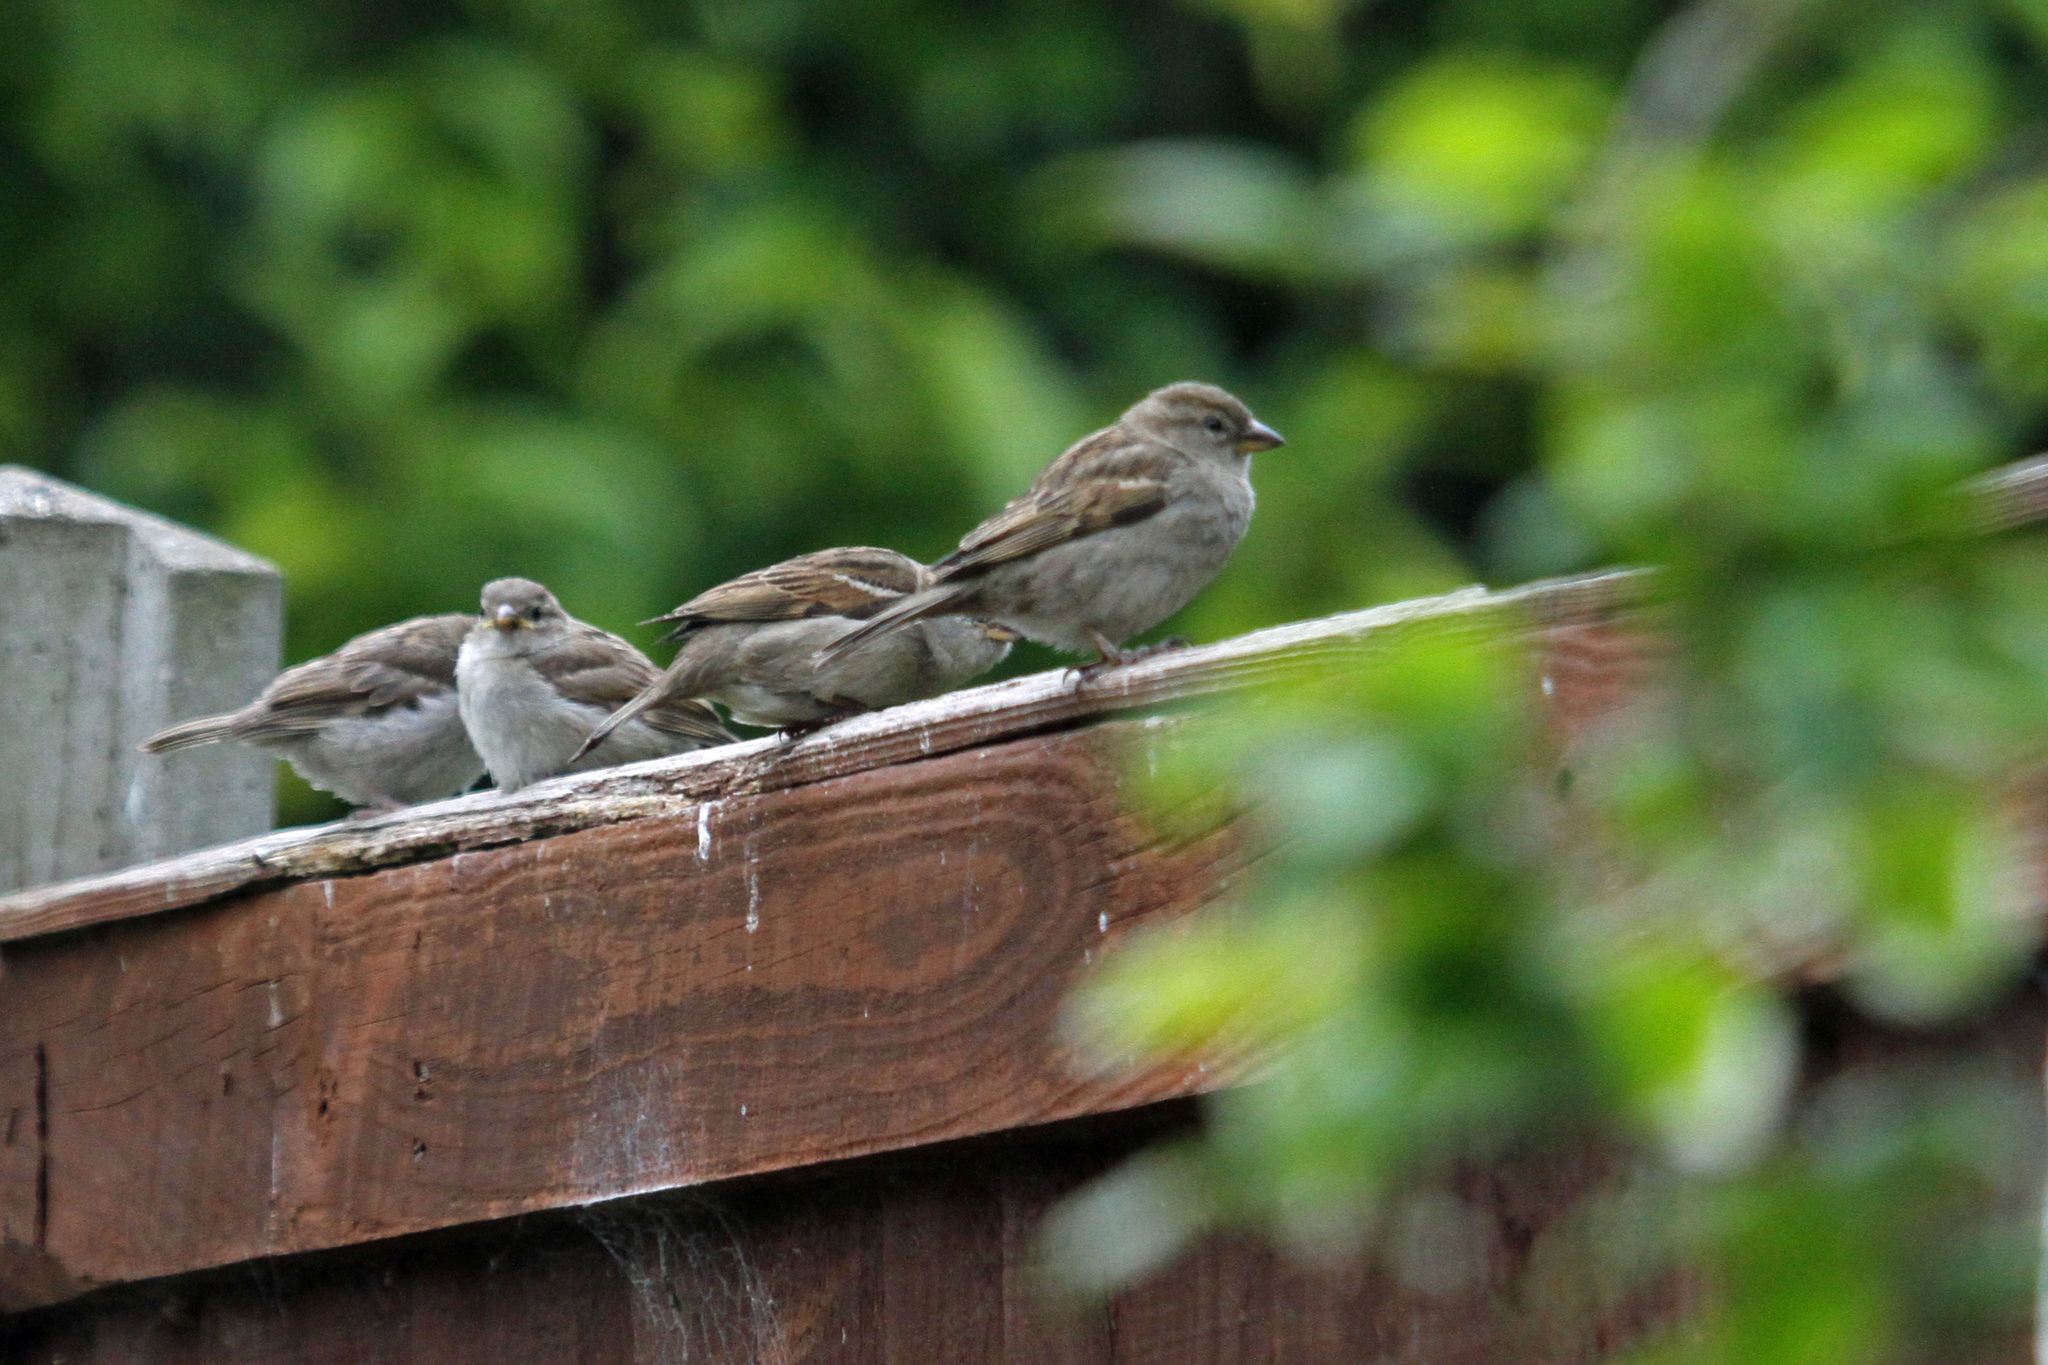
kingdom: Animalia
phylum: Chordata
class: Aves
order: Passeriformes
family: Passeridae
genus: Passer
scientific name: Passer domesticus
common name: House sparrow
